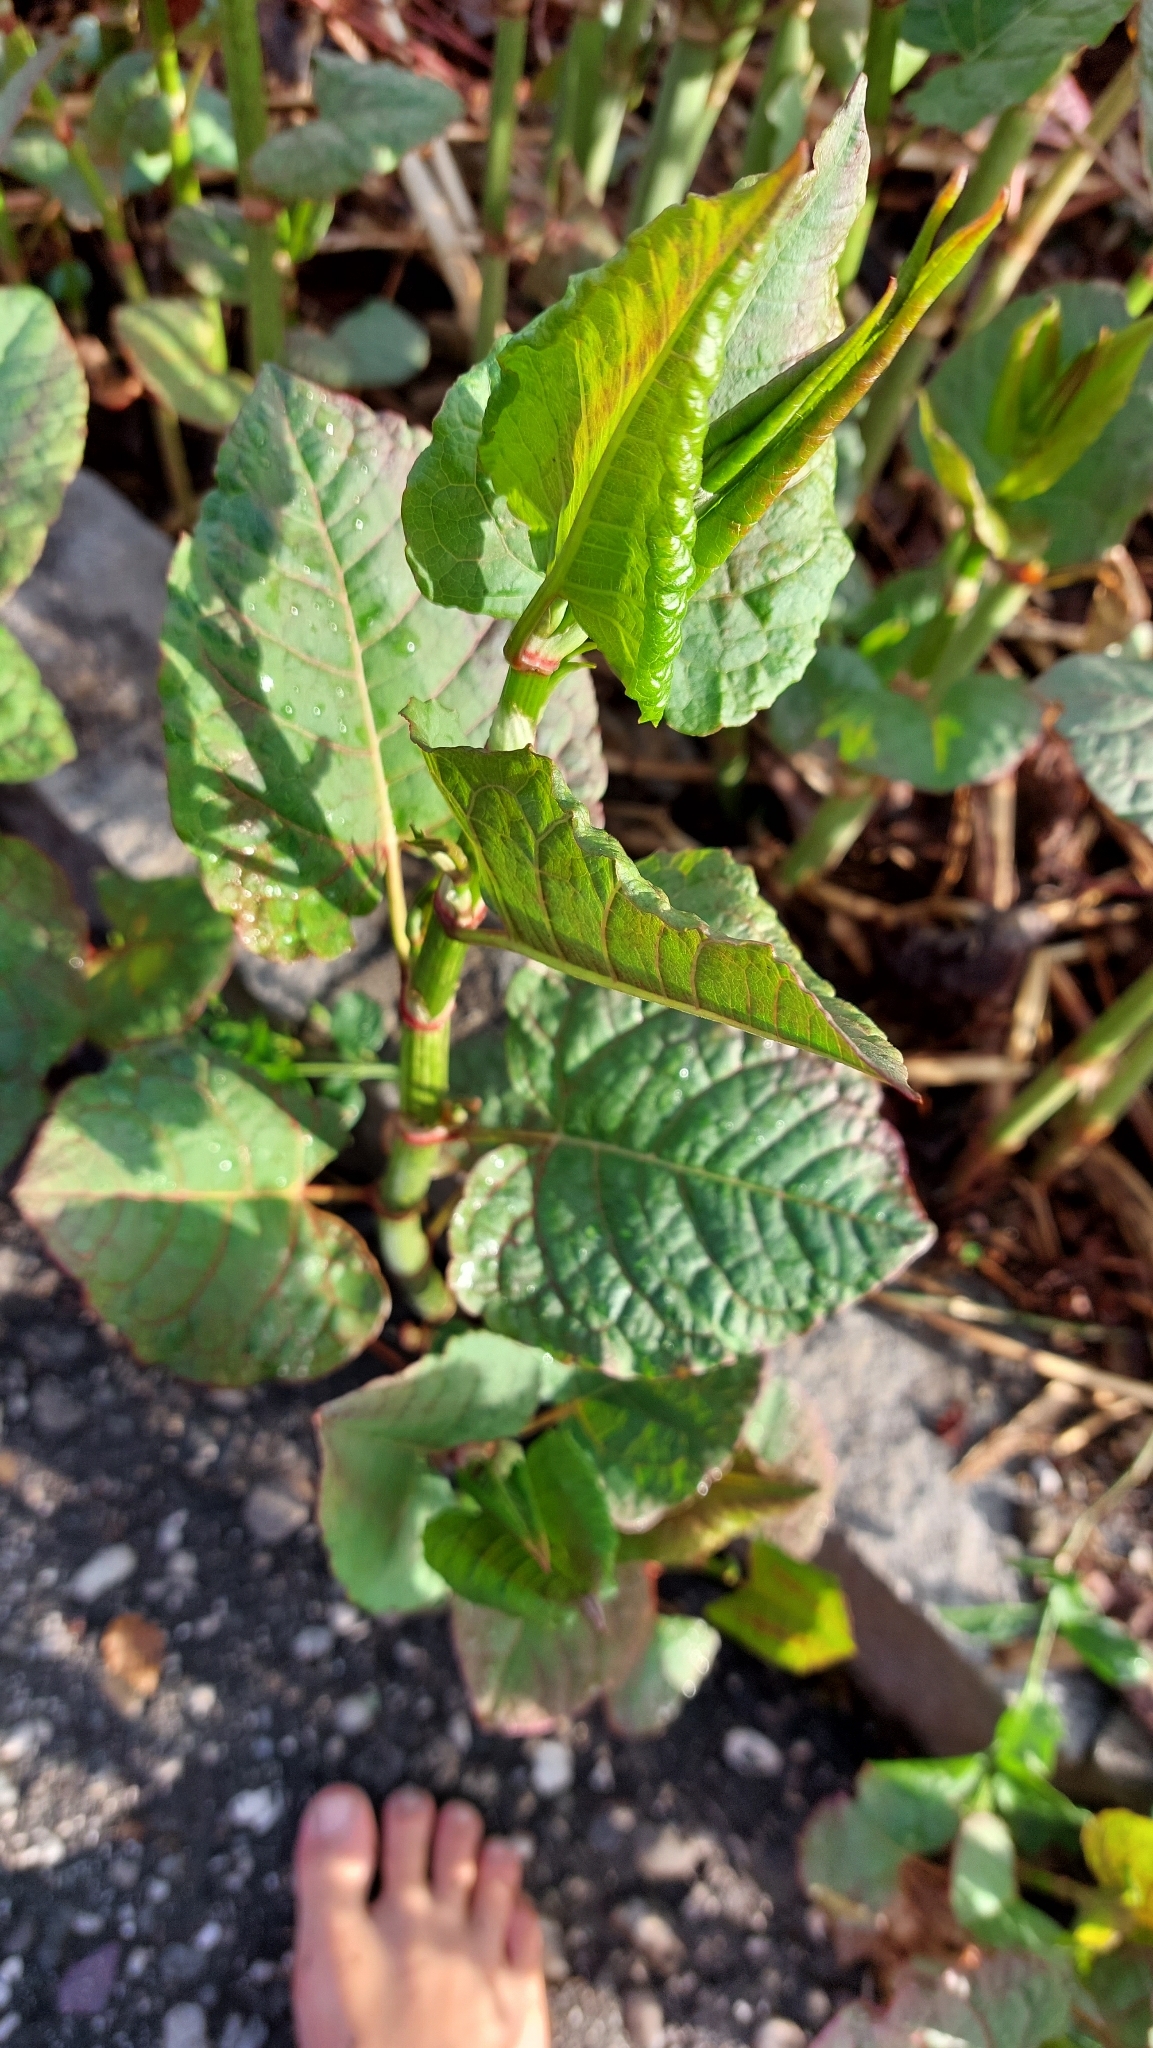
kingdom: Plantae
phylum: Tracheophyta
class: Magnoliopsida
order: Caryophyllales
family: Polygonaceae
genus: Reynoutria
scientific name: Reynoutria bohemica
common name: Bohemian knotweed
